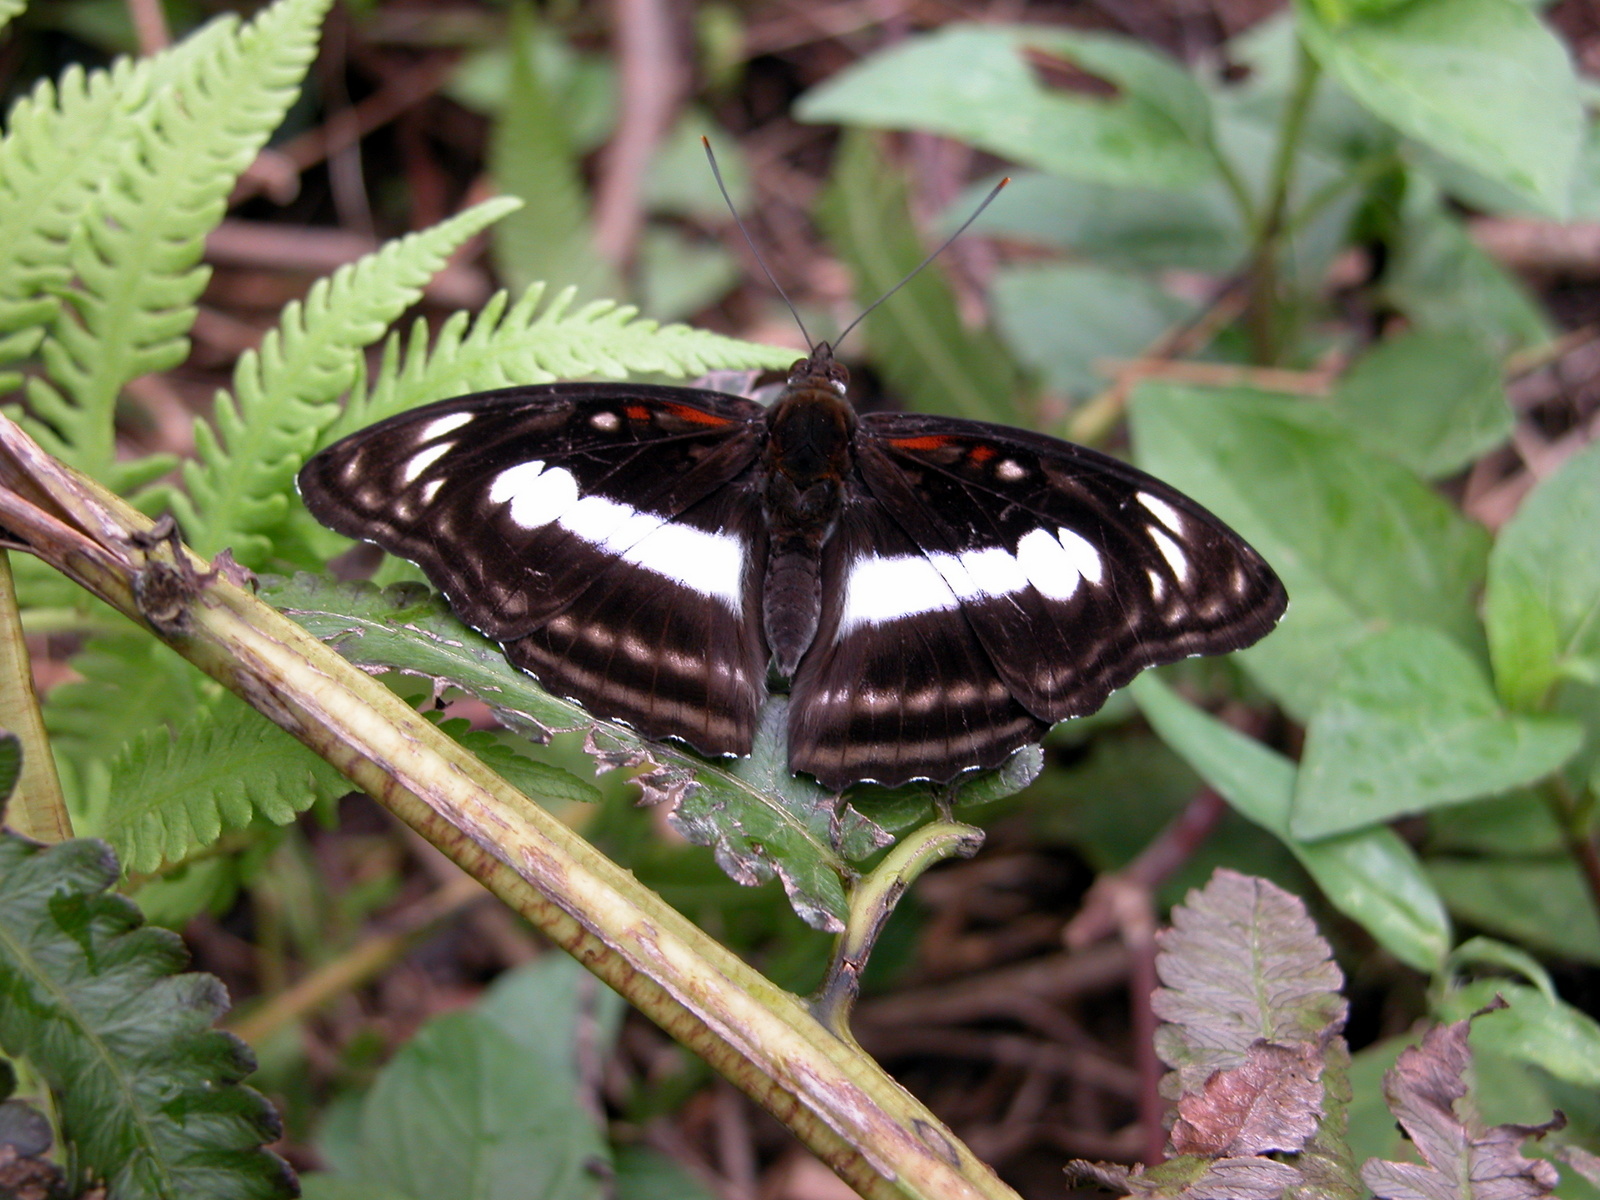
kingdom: Animalia
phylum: Arthropoda
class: Insecta
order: Lepidoptera
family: Nymphalidae
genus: Parathyma
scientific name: Parathyma selenophora
